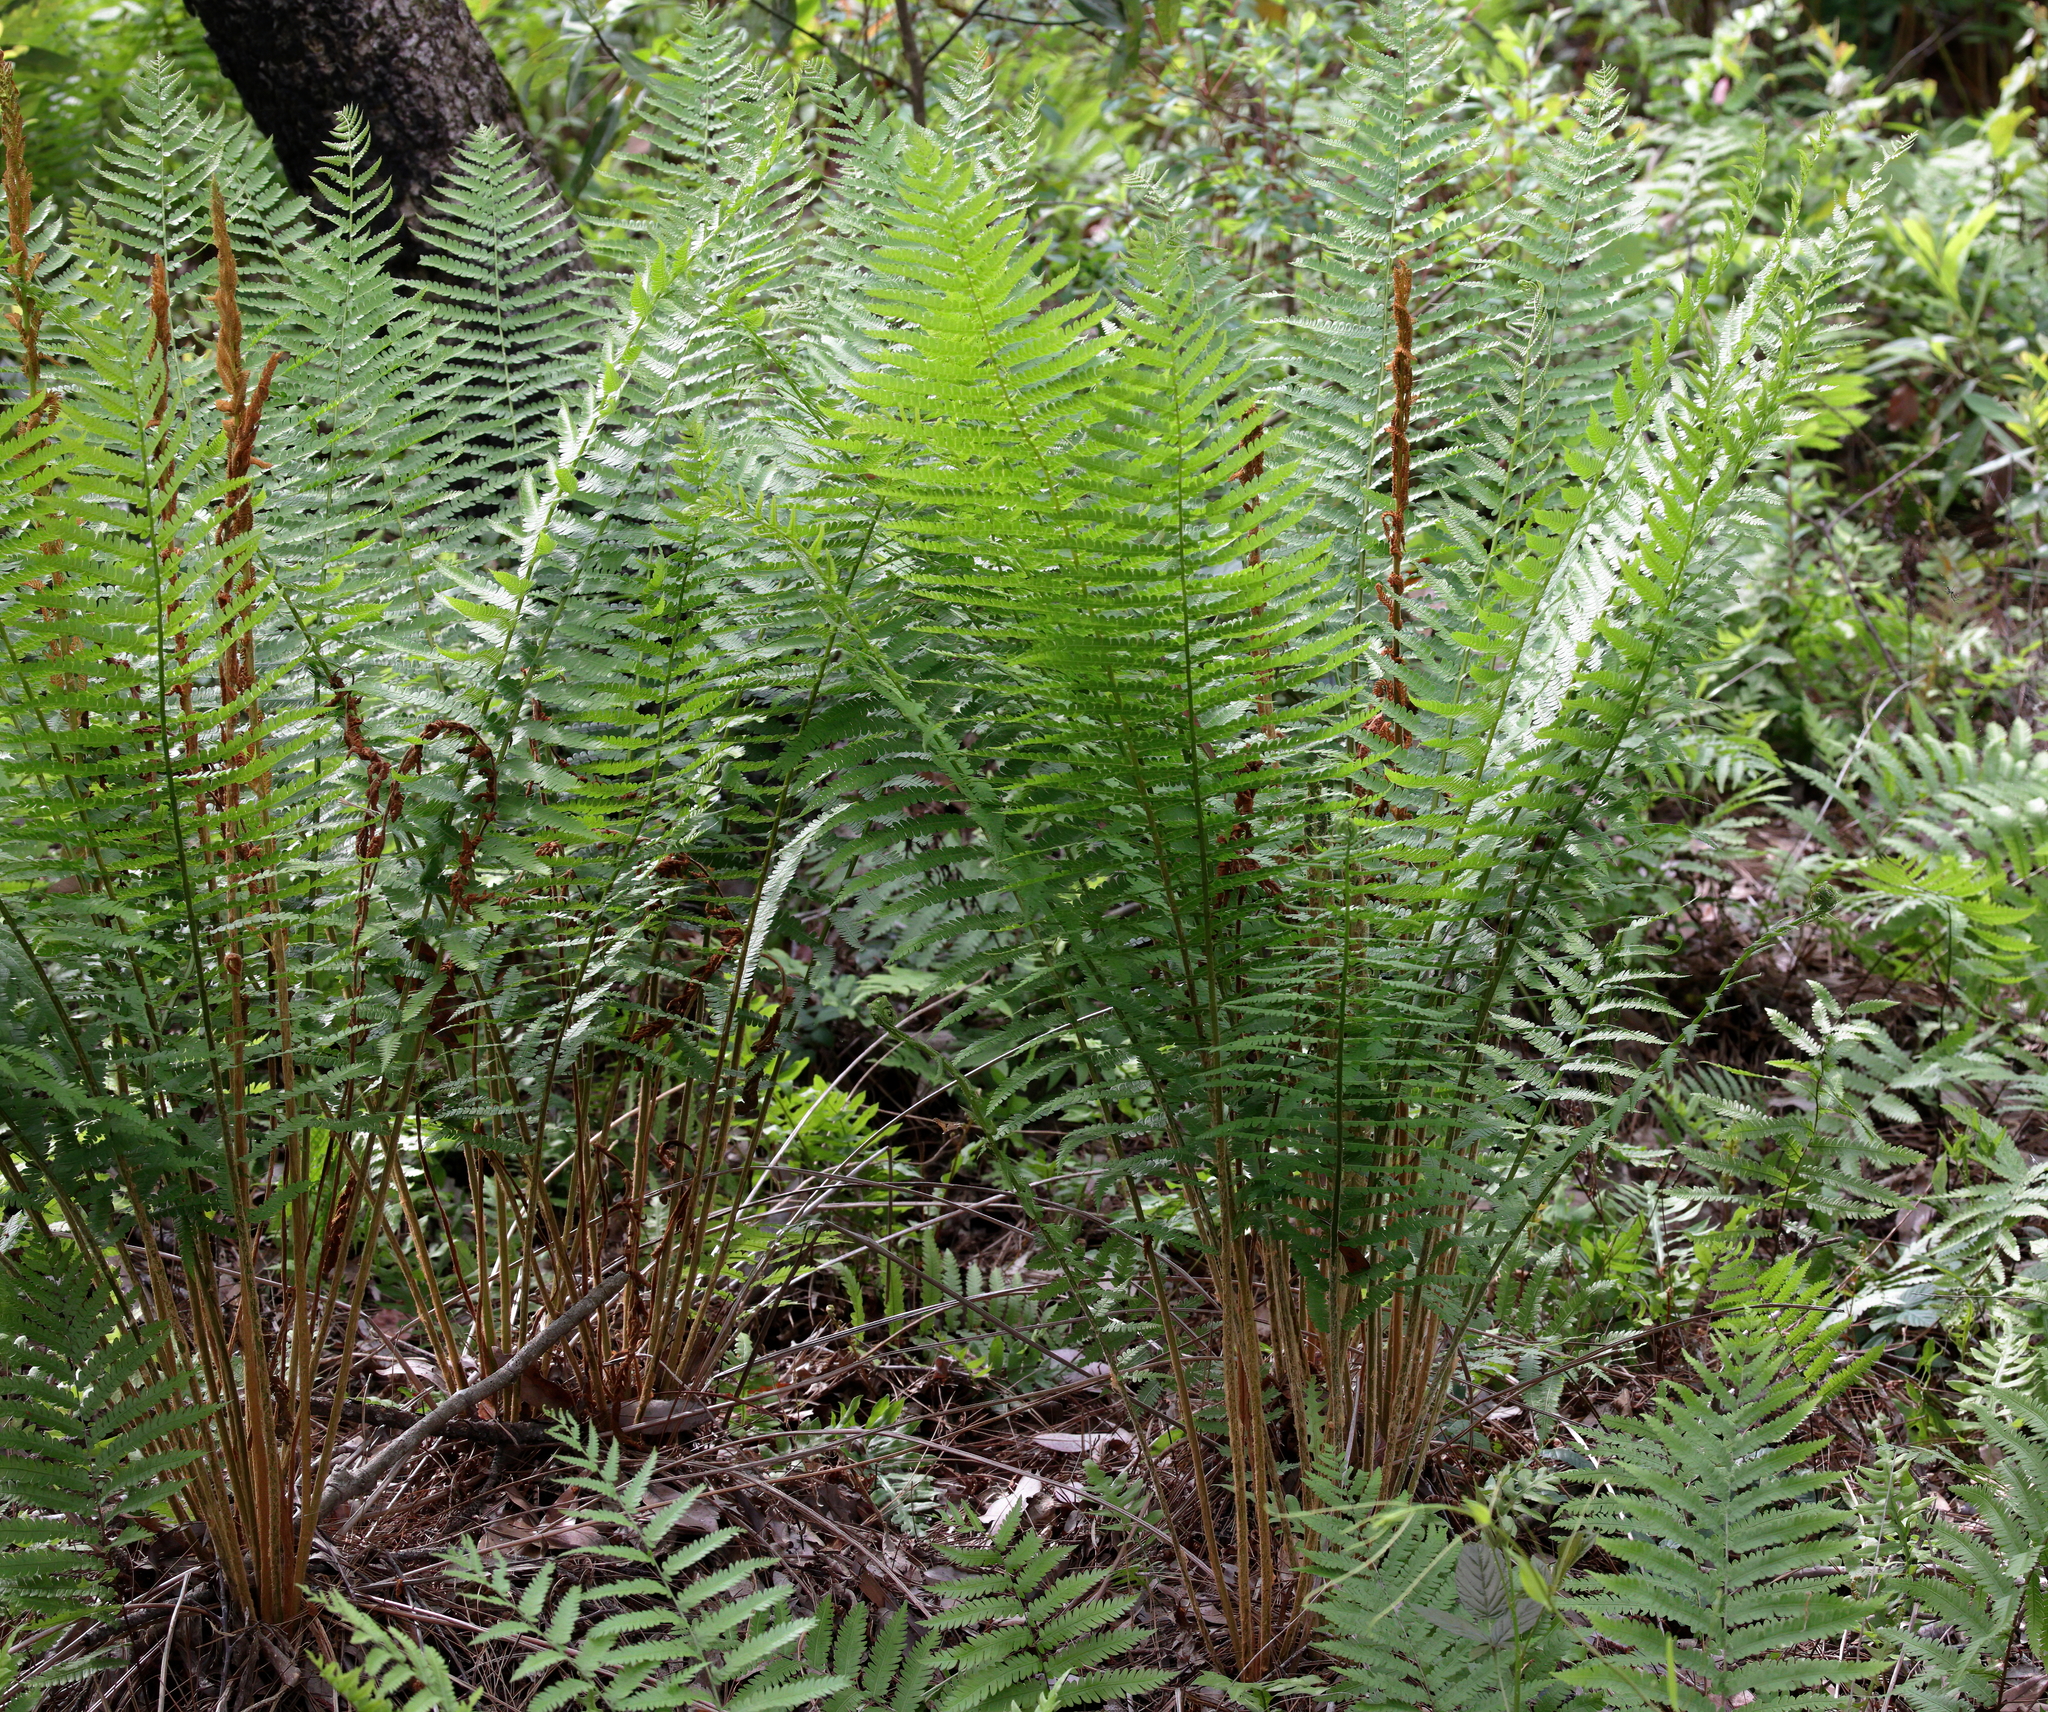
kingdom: Plantae
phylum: Tracheophyta
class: Polypodiopsida
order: Osmundales
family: Osmundaceae
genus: Osmundastrum
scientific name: Osmundastrum cinnamomeum
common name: Cinnamon fern
